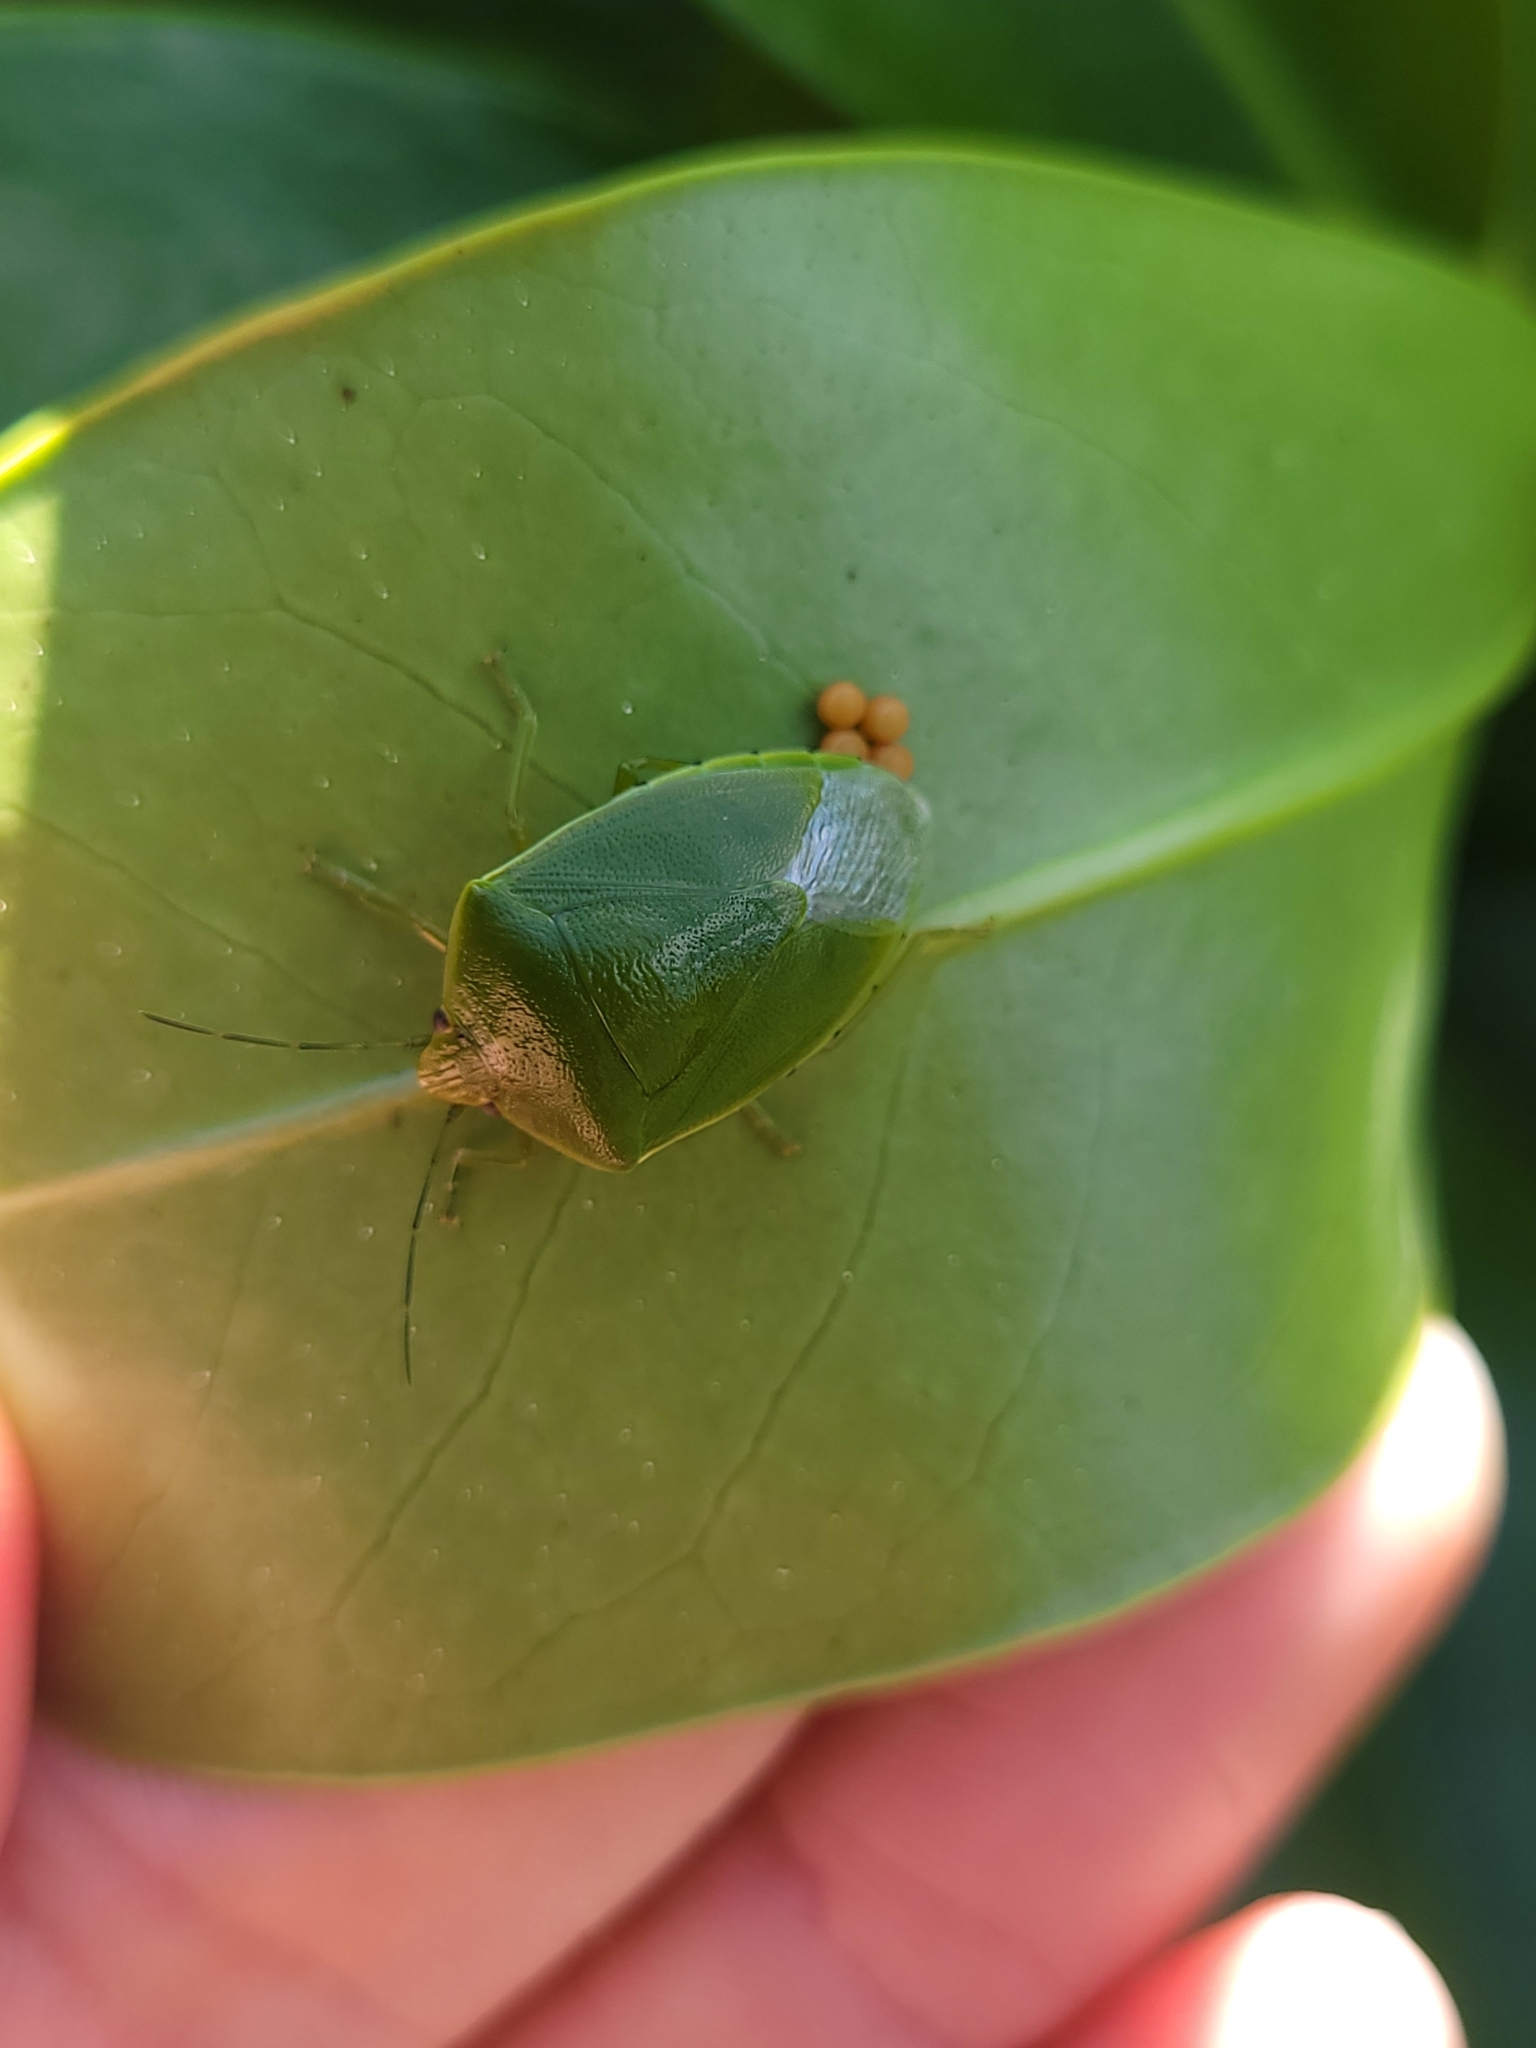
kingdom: Animalia
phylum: Arthropoda
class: Insecta
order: Hemiptera
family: Pentatomidae
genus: Glaucias
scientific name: Glaucias amyota
